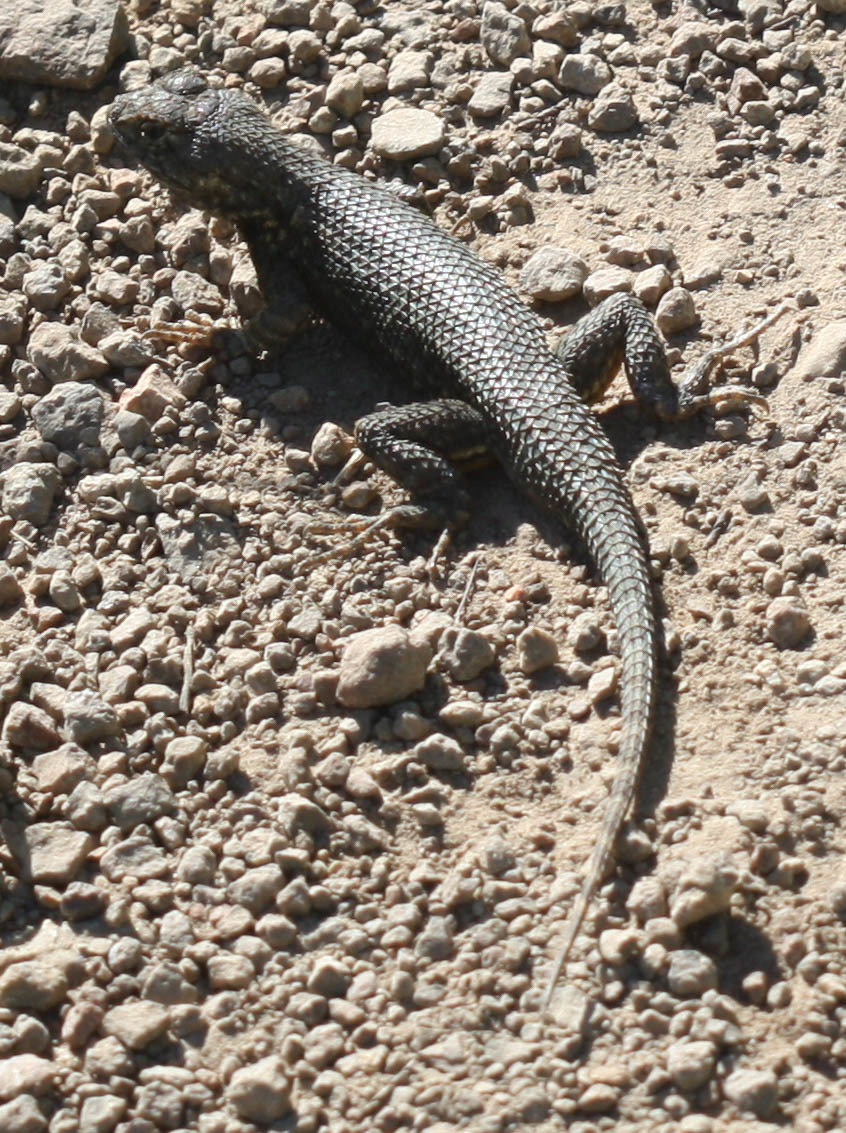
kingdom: Animalia
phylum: Chordata
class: Squamata
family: Phrynosomatidae
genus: Sceloporus
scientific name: Sceloporus occidentalis
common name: Western fence lizard
